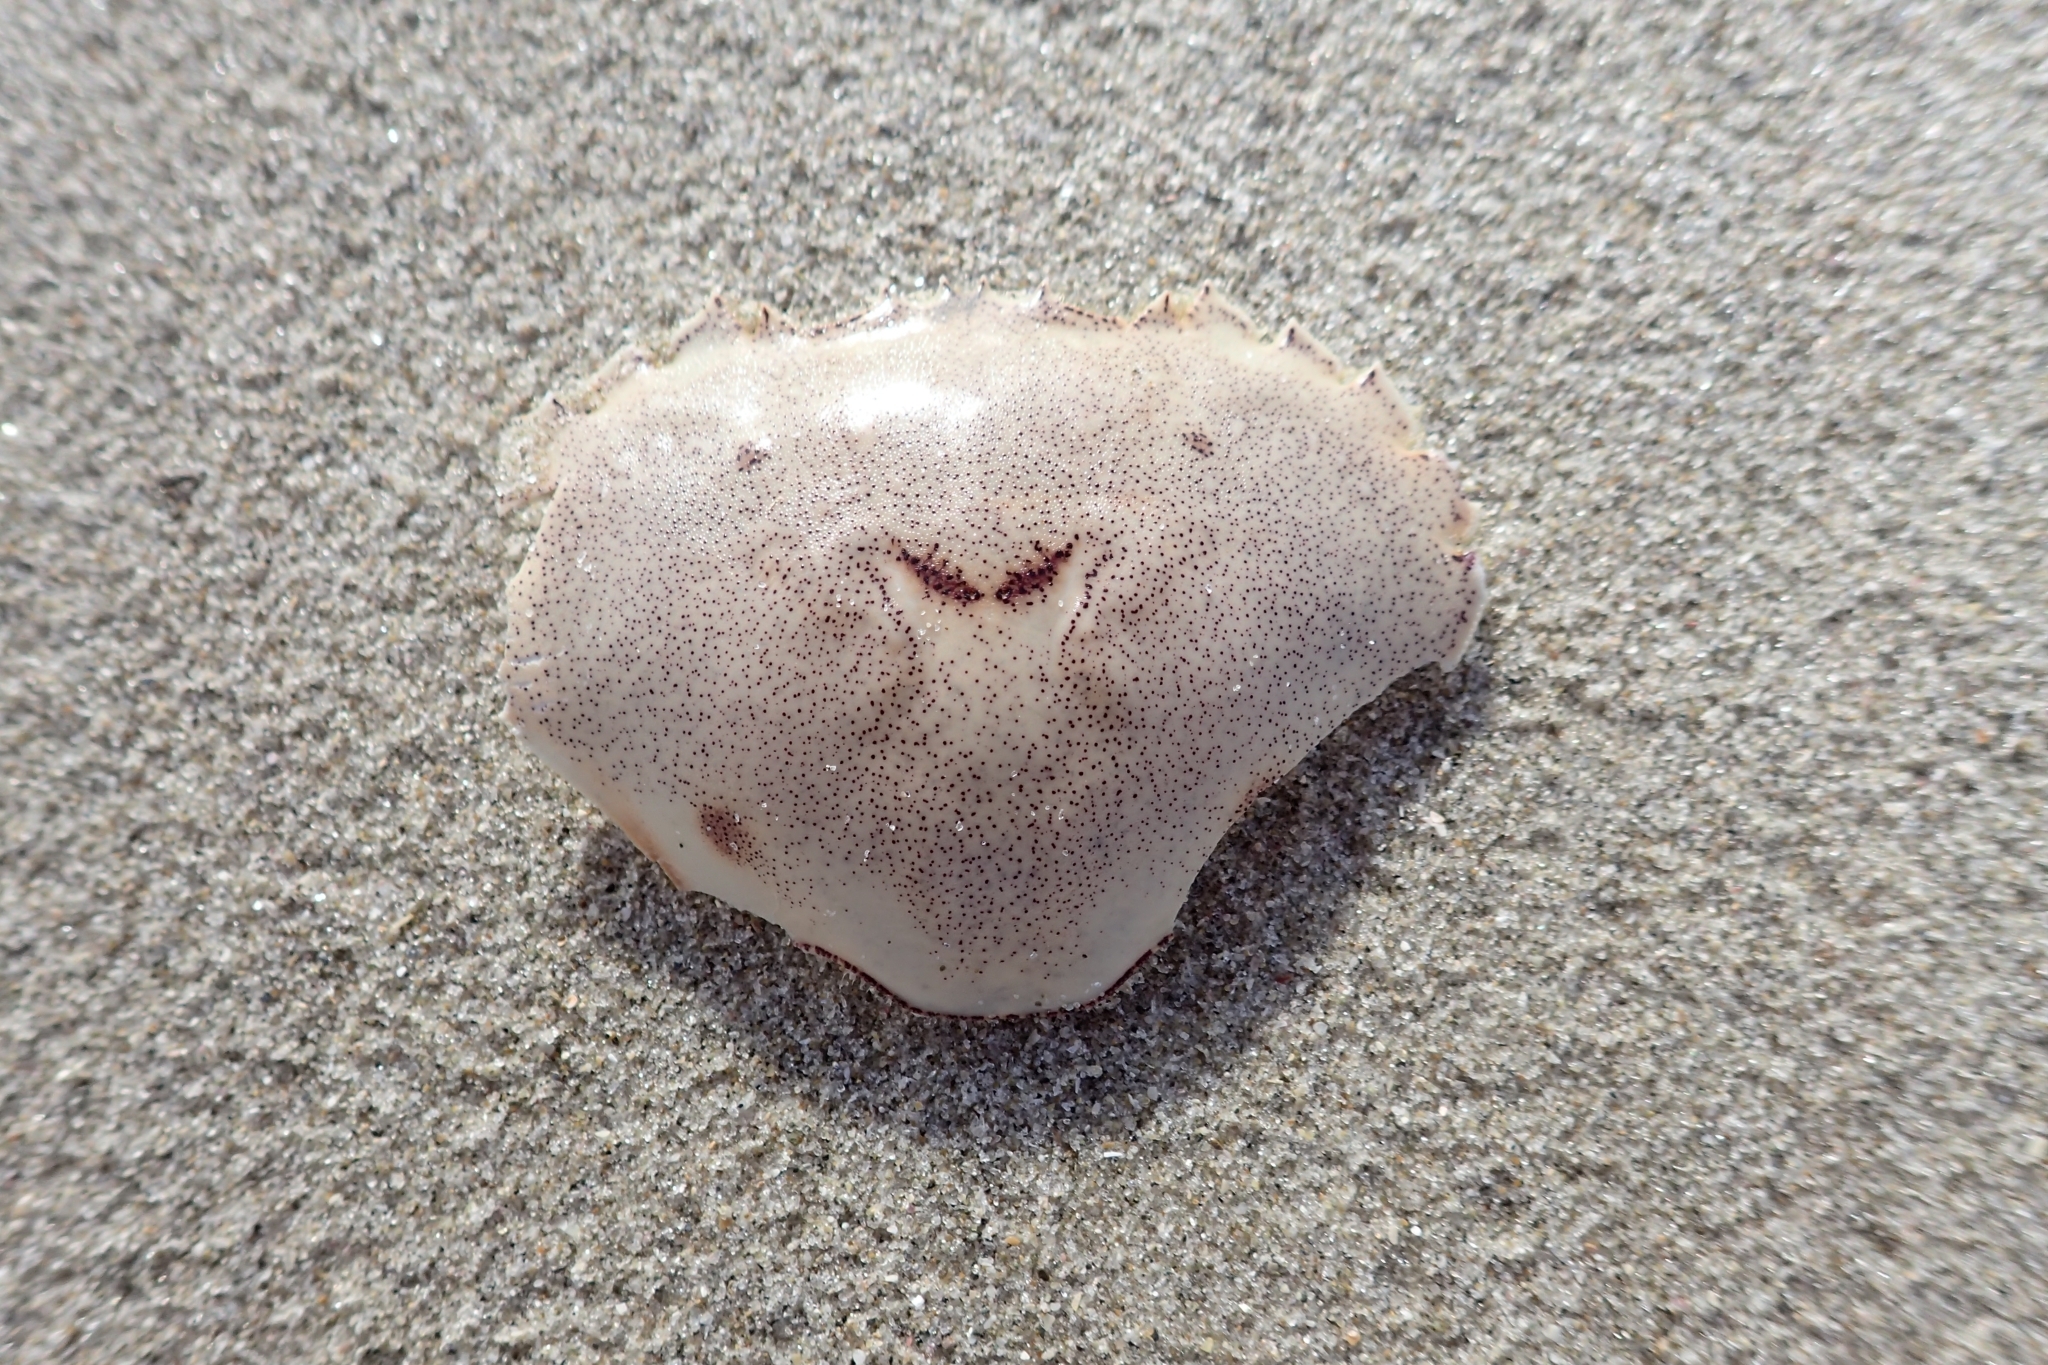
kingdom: Animalia
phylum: Arthropoda
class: Malacostraca
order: Decapoda
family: Ovalipidae
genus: Ovalipes
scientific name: Ovalipes catharus
